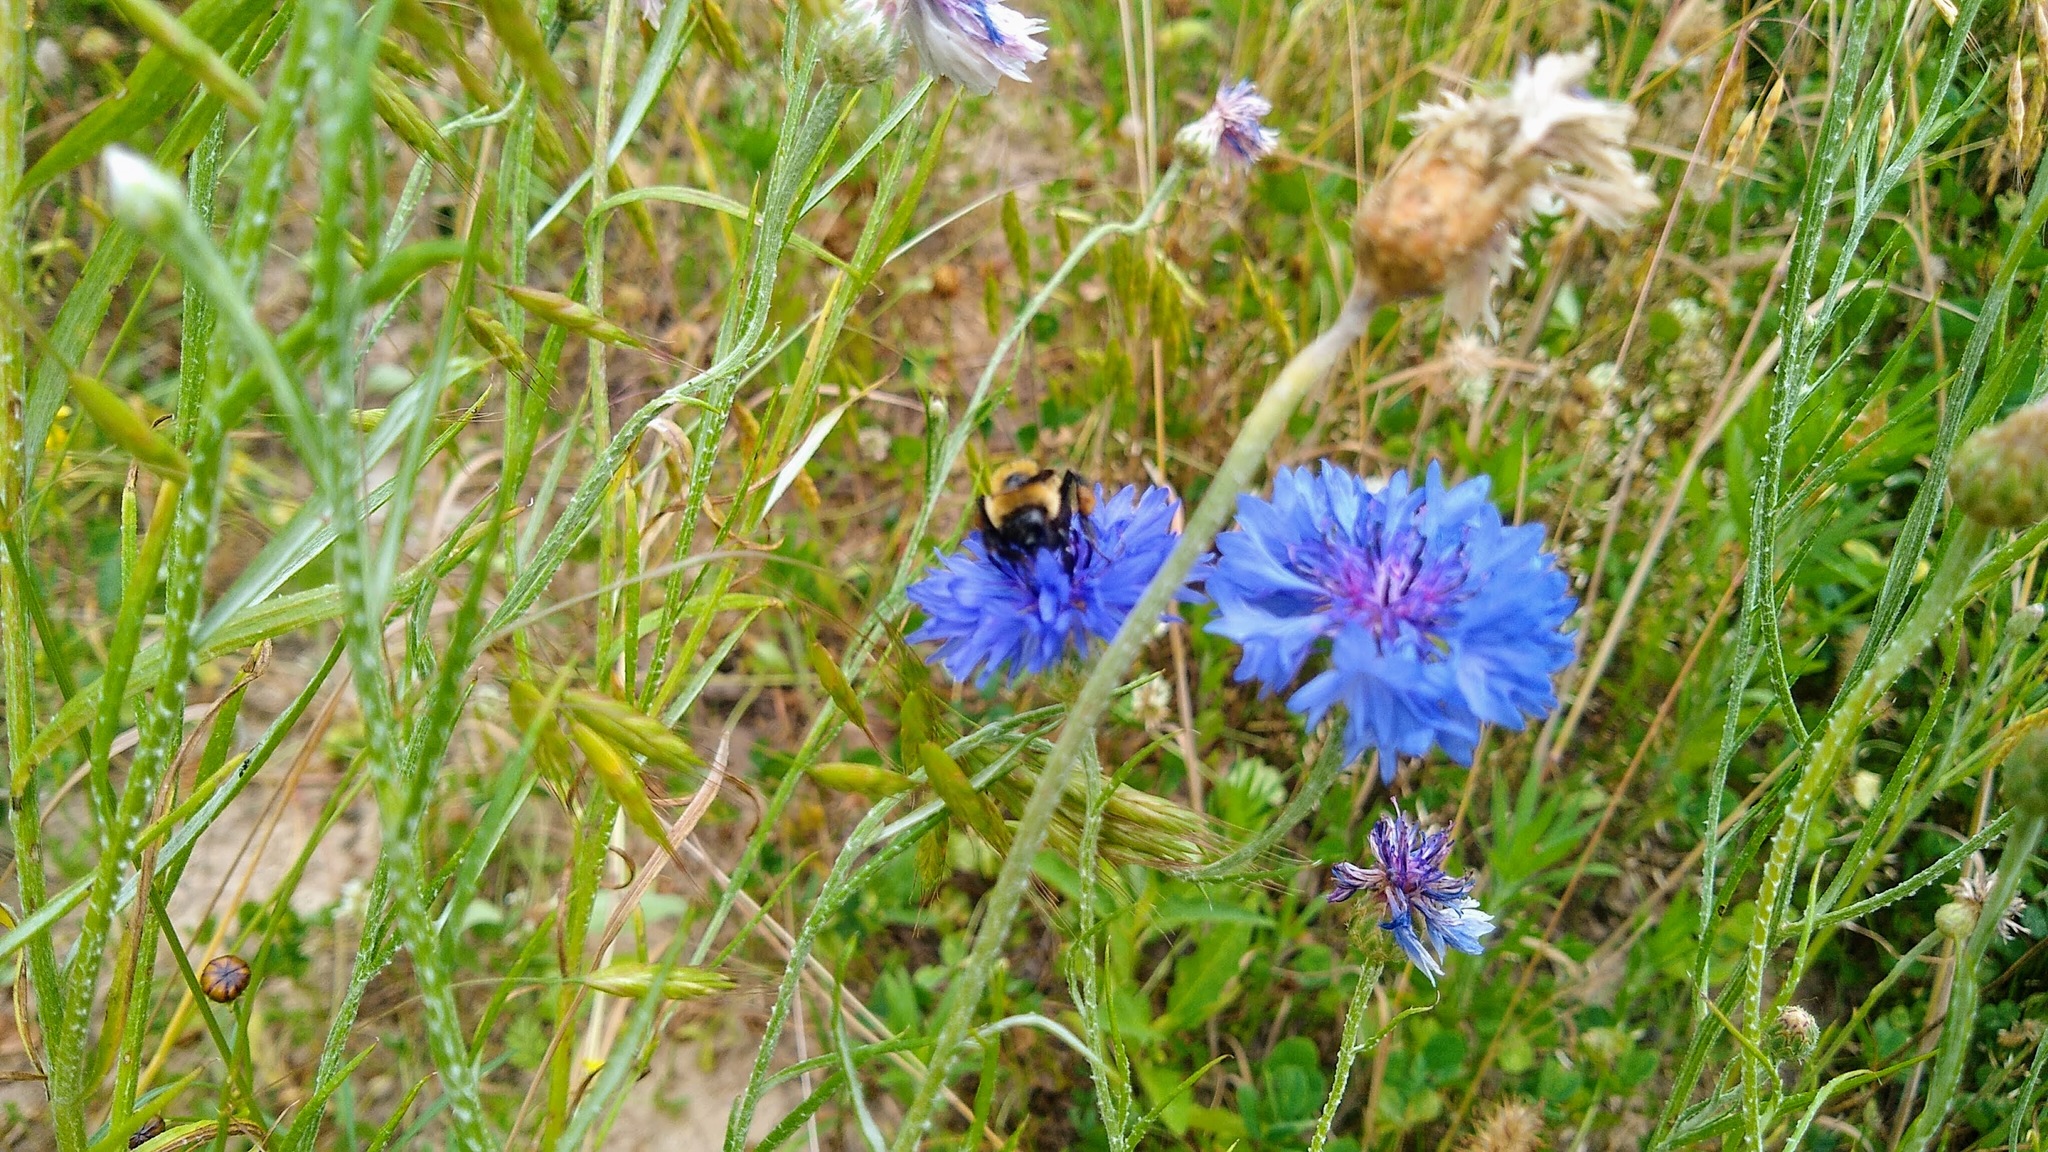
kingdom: Plantae
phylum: Tracheophyta
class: Magnoliopsida
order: Asterales
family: Asteraceae
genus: Centaurea
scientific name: Centaurea cyanus
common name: Cornflower
